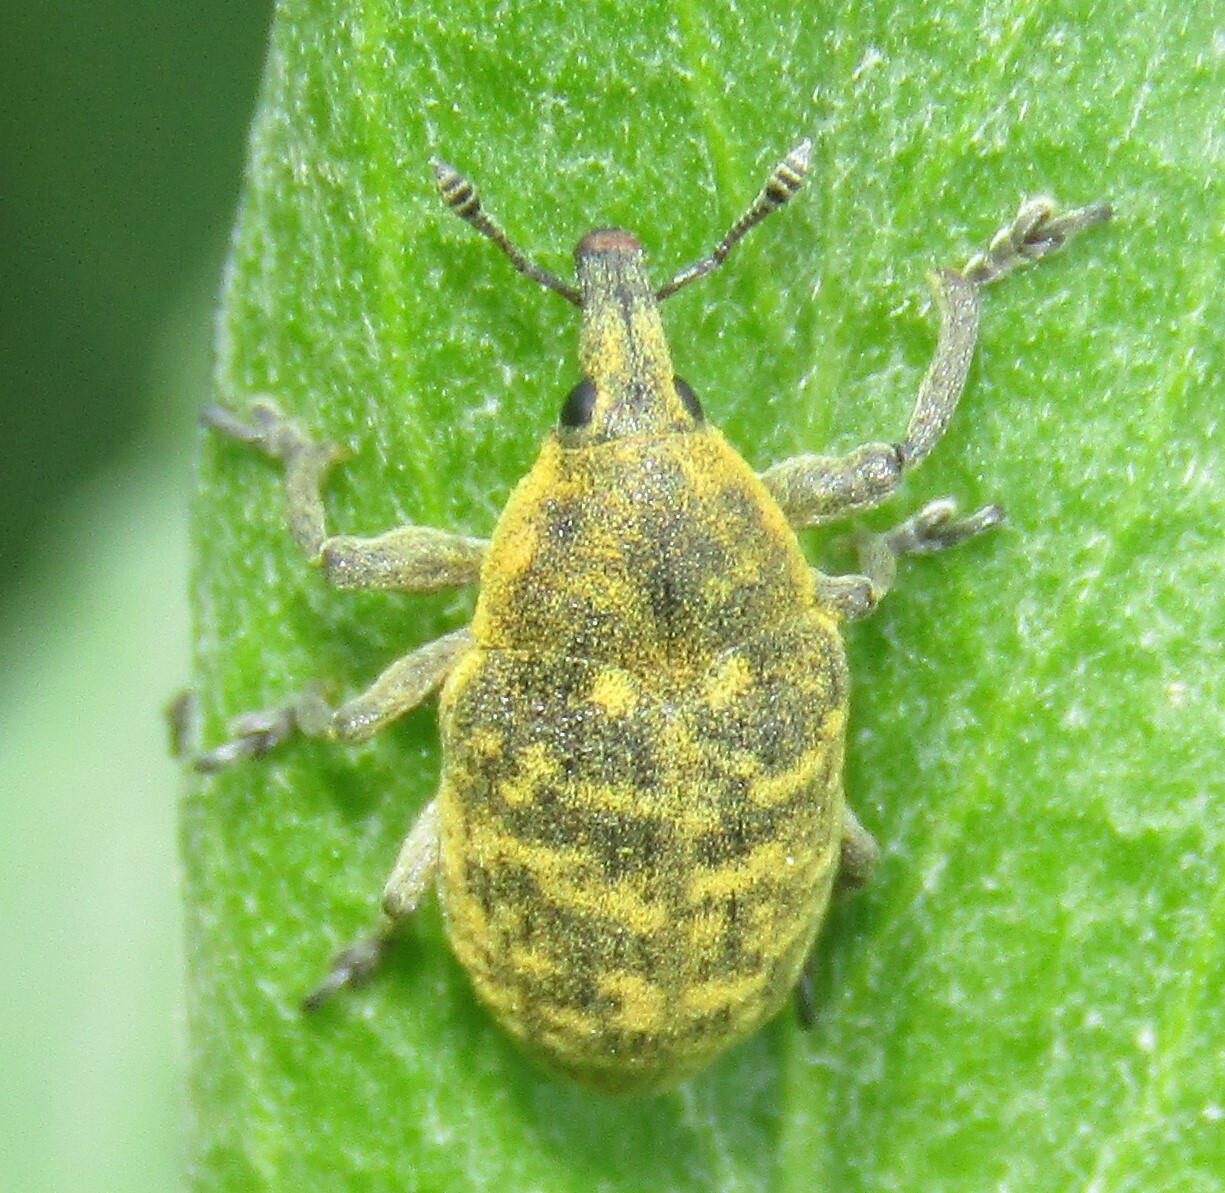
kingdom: Animalia
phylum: Arthropoda
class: Insecta
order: Coleoptera
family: Curculionidae
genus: Larinus
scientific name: Larinus turbinatus
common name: Weevil
